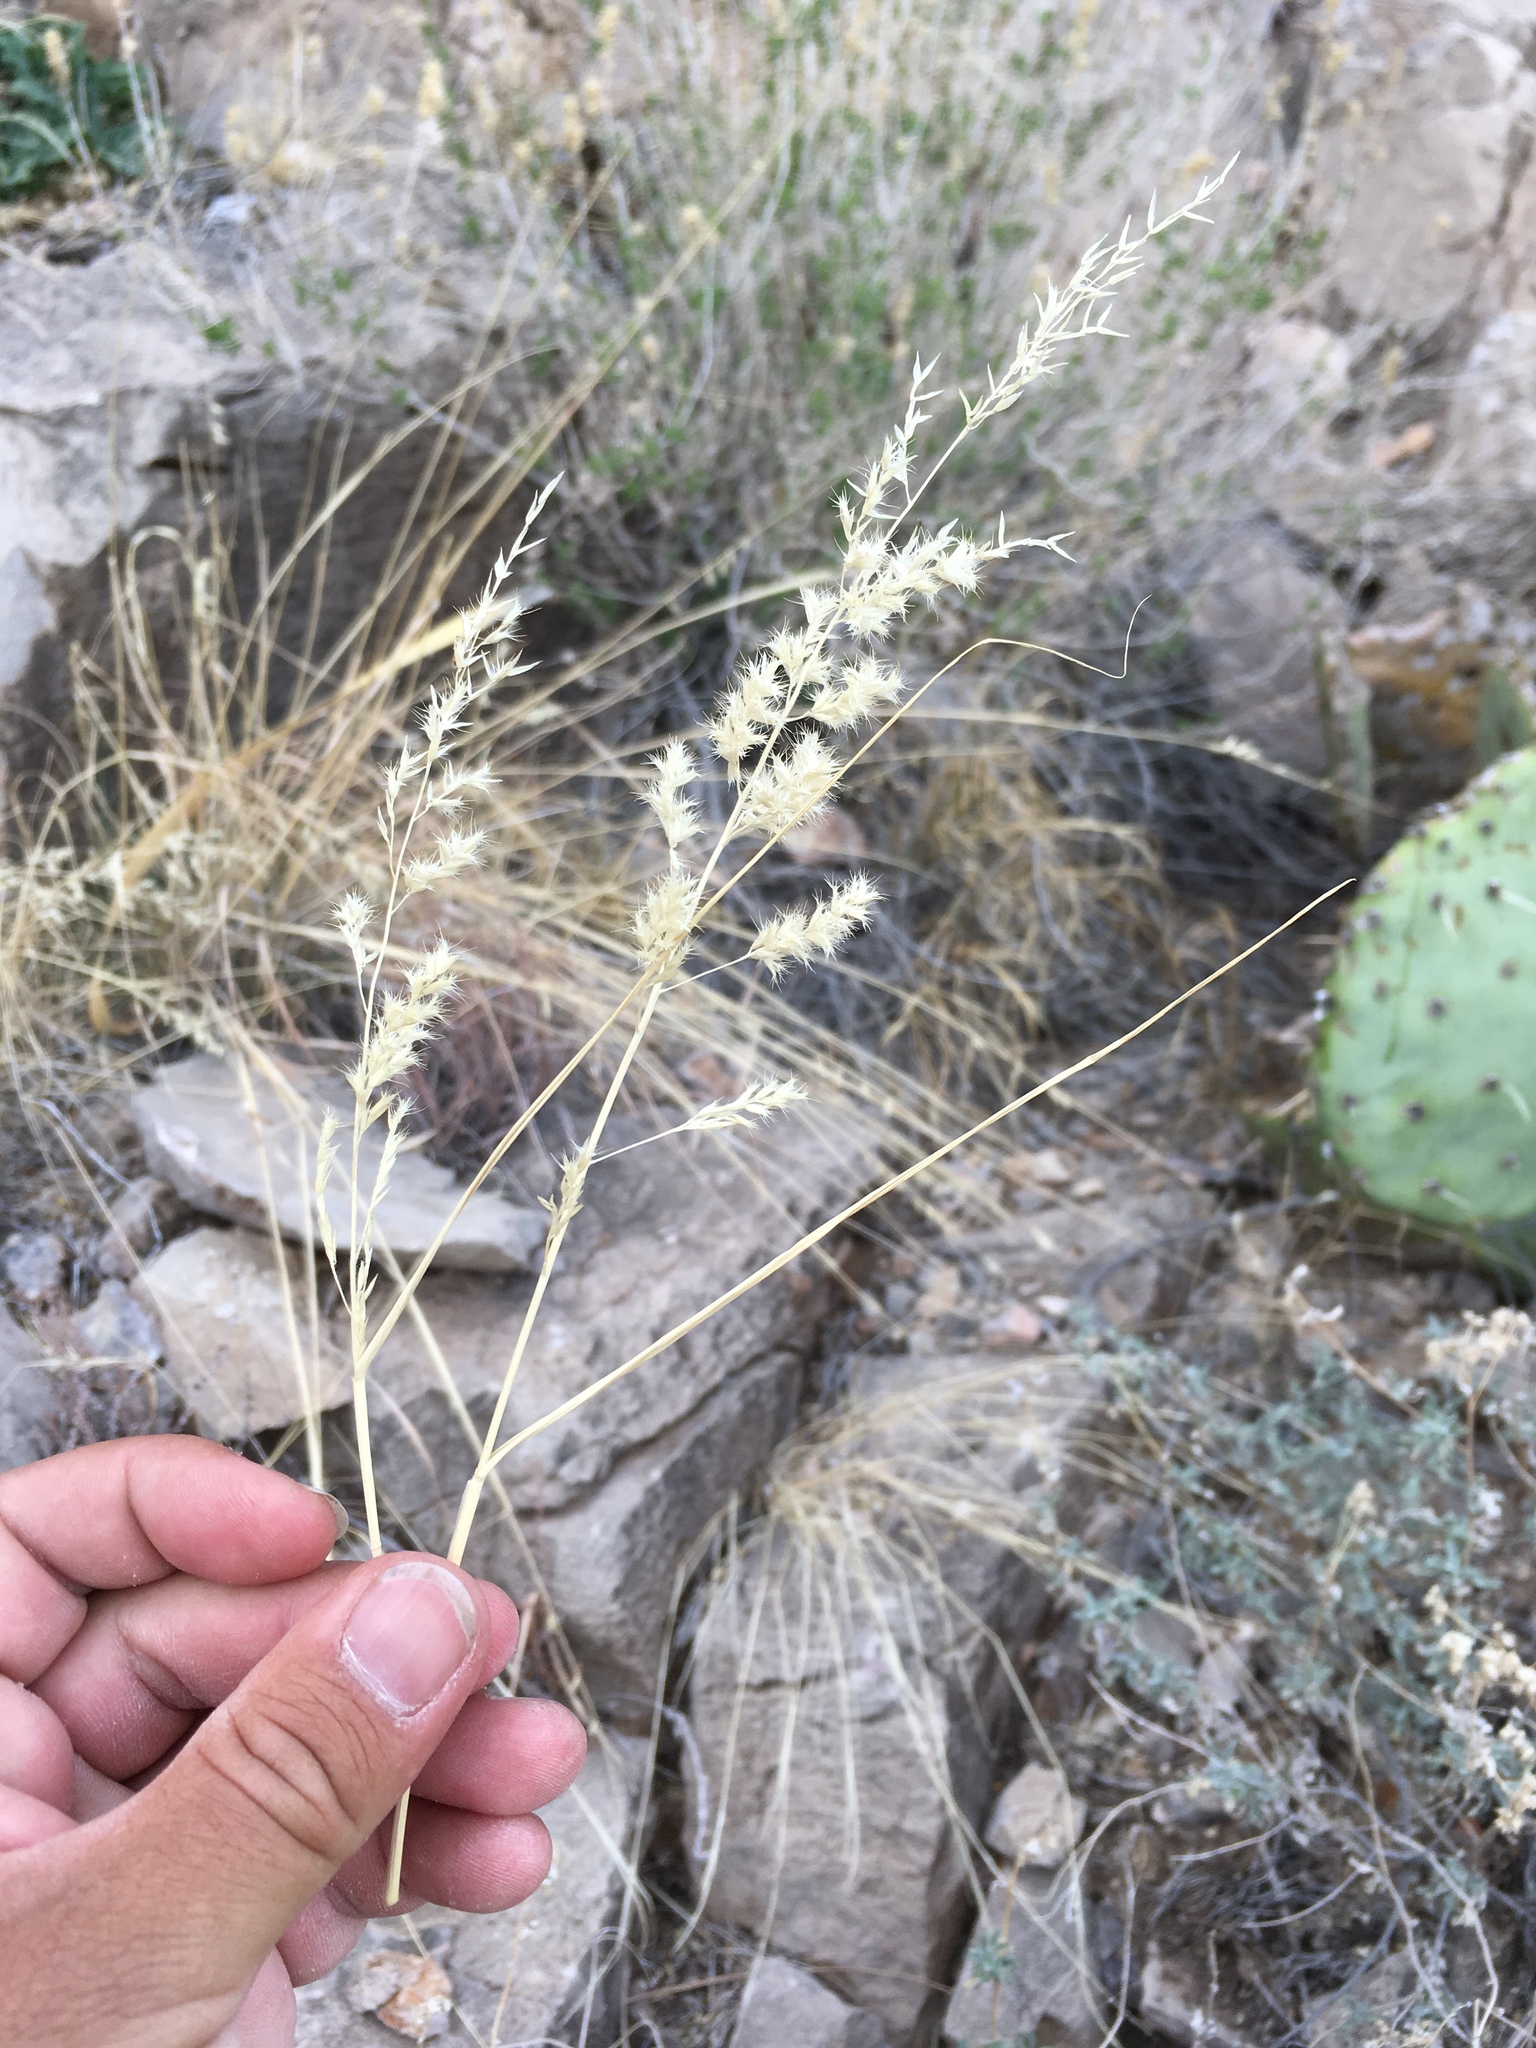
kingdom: Plantae
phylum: Tracheophyta
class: Liliopsida
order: Poales
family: Poaceae
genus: Cottea
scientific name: Cottea pappophoroides
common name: Cotta grass
